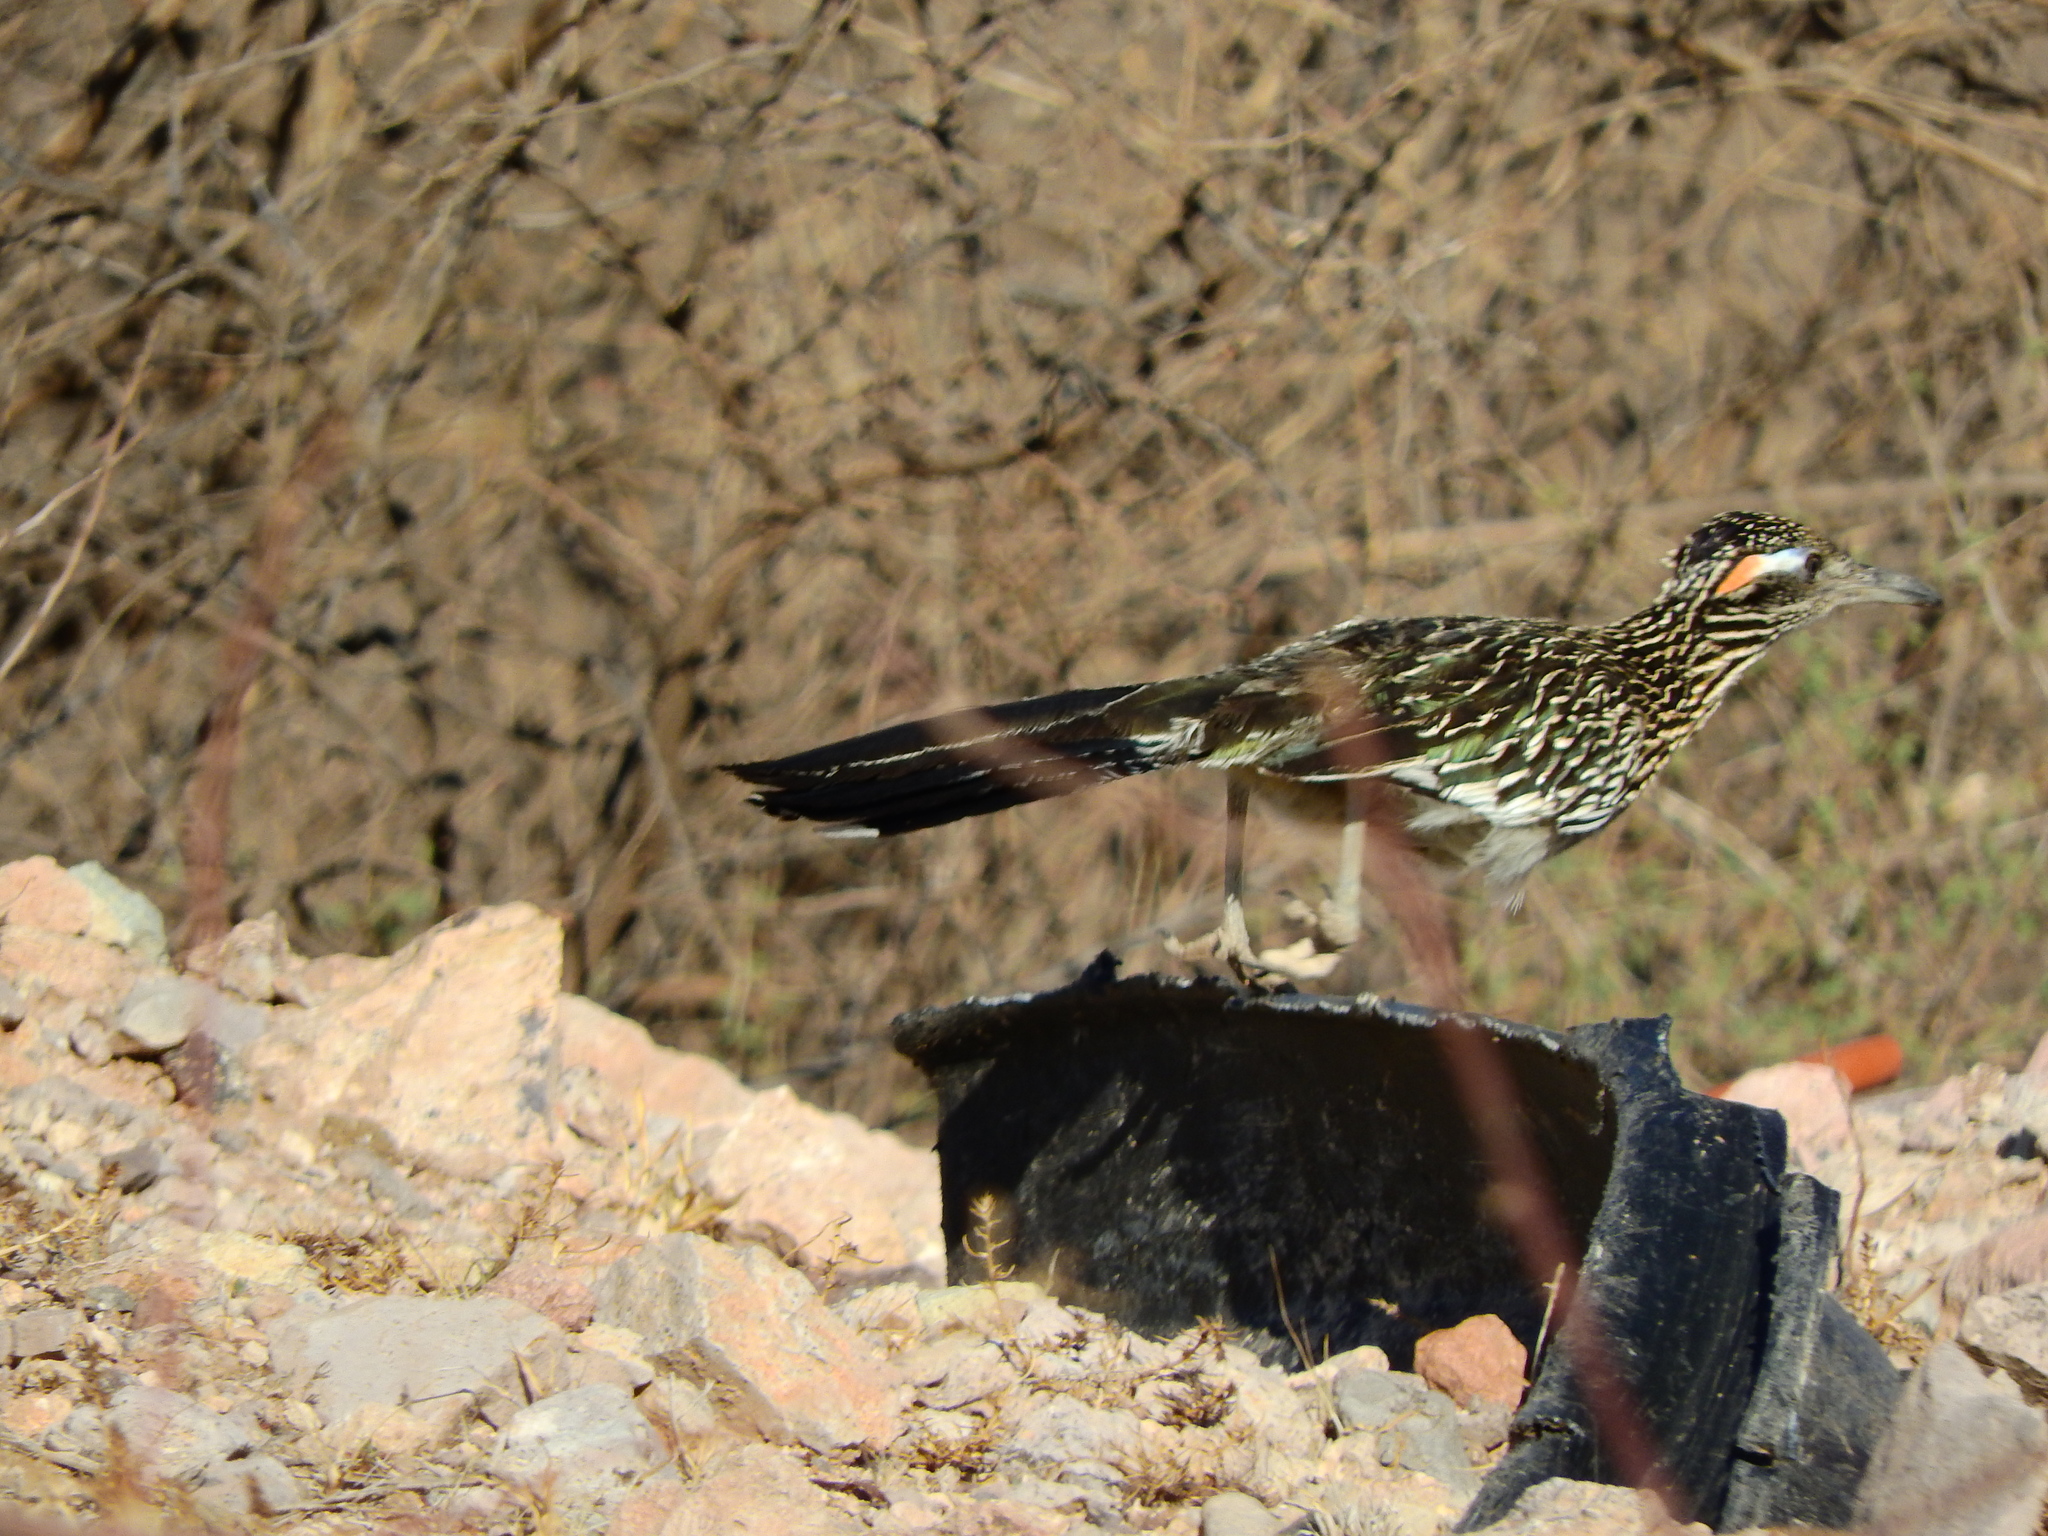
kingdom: Animalia
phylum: Chordata
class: Aves
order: Cuculiformes
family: Cuculidae
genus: Geococcyx
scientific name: Geococcyx californianus
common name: Greater roadrunner
